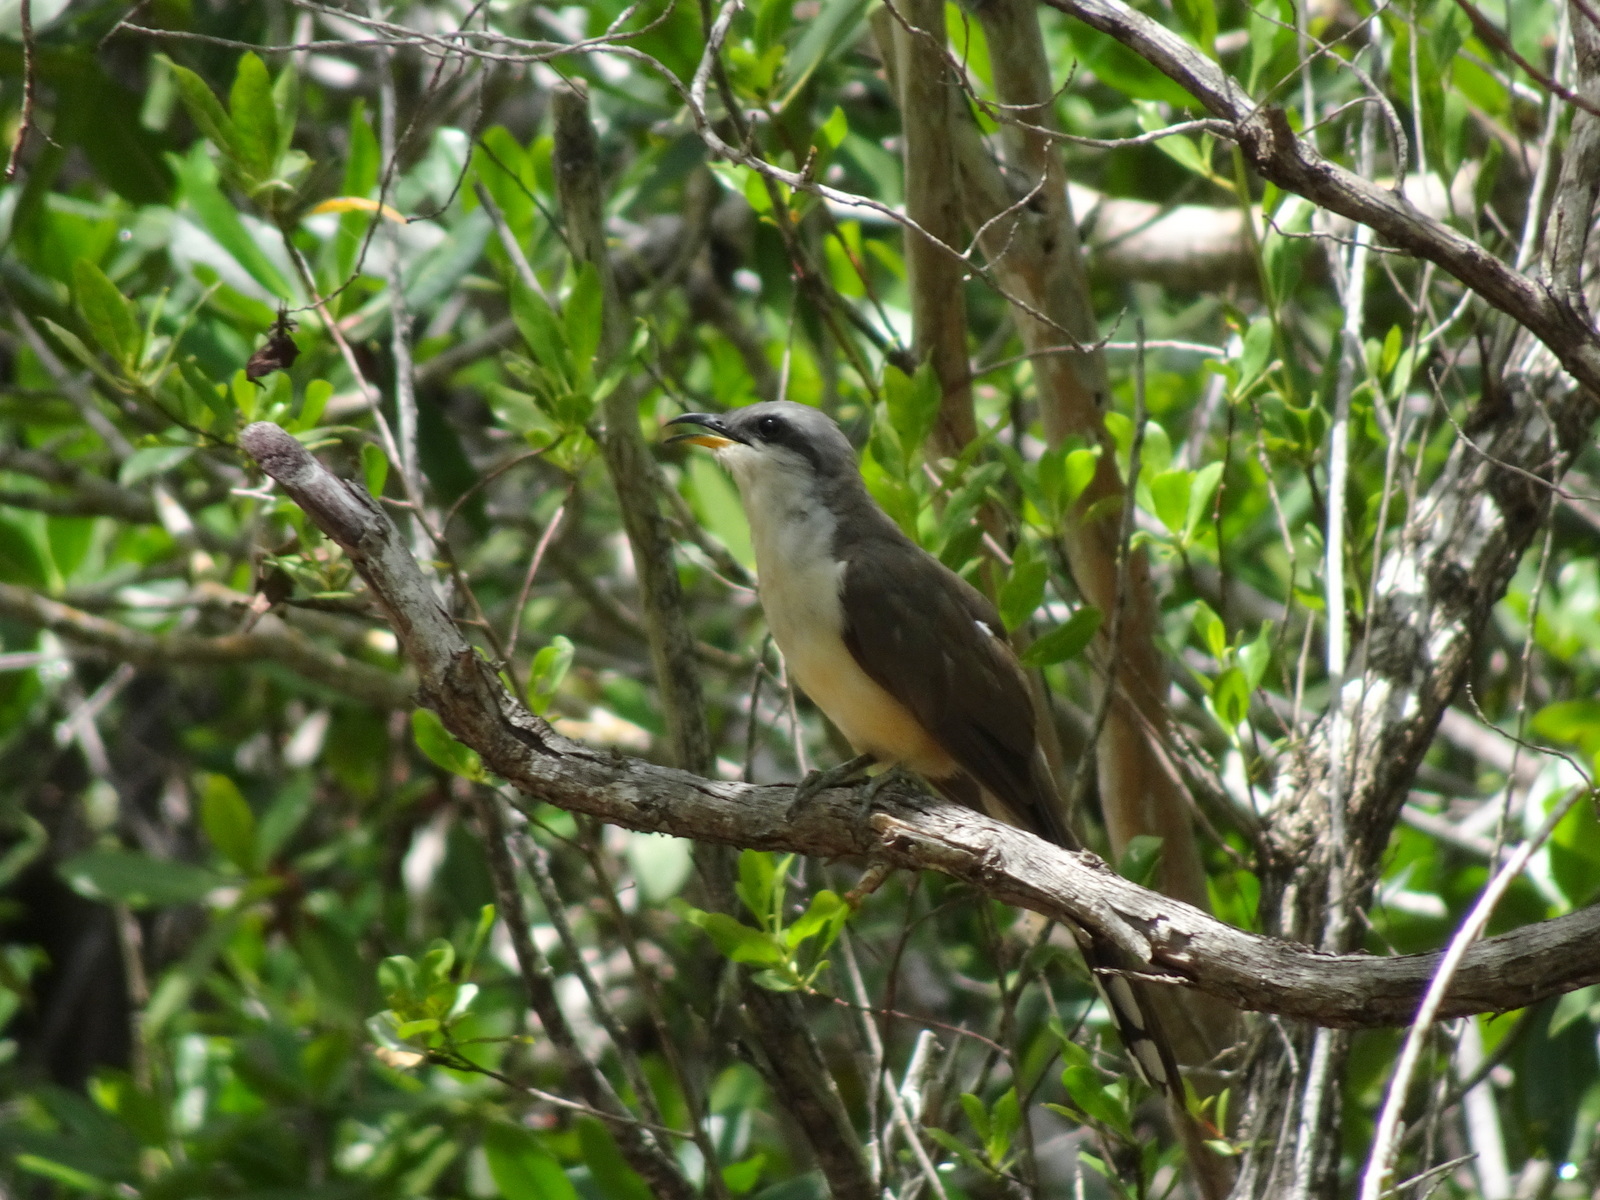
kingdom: Animalia
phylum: Chordata
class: Aves
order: Cuculiformes
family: Cuculidae
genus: Coccyzus
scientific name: Coccyzus minor
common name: Mangrove cuckoo
